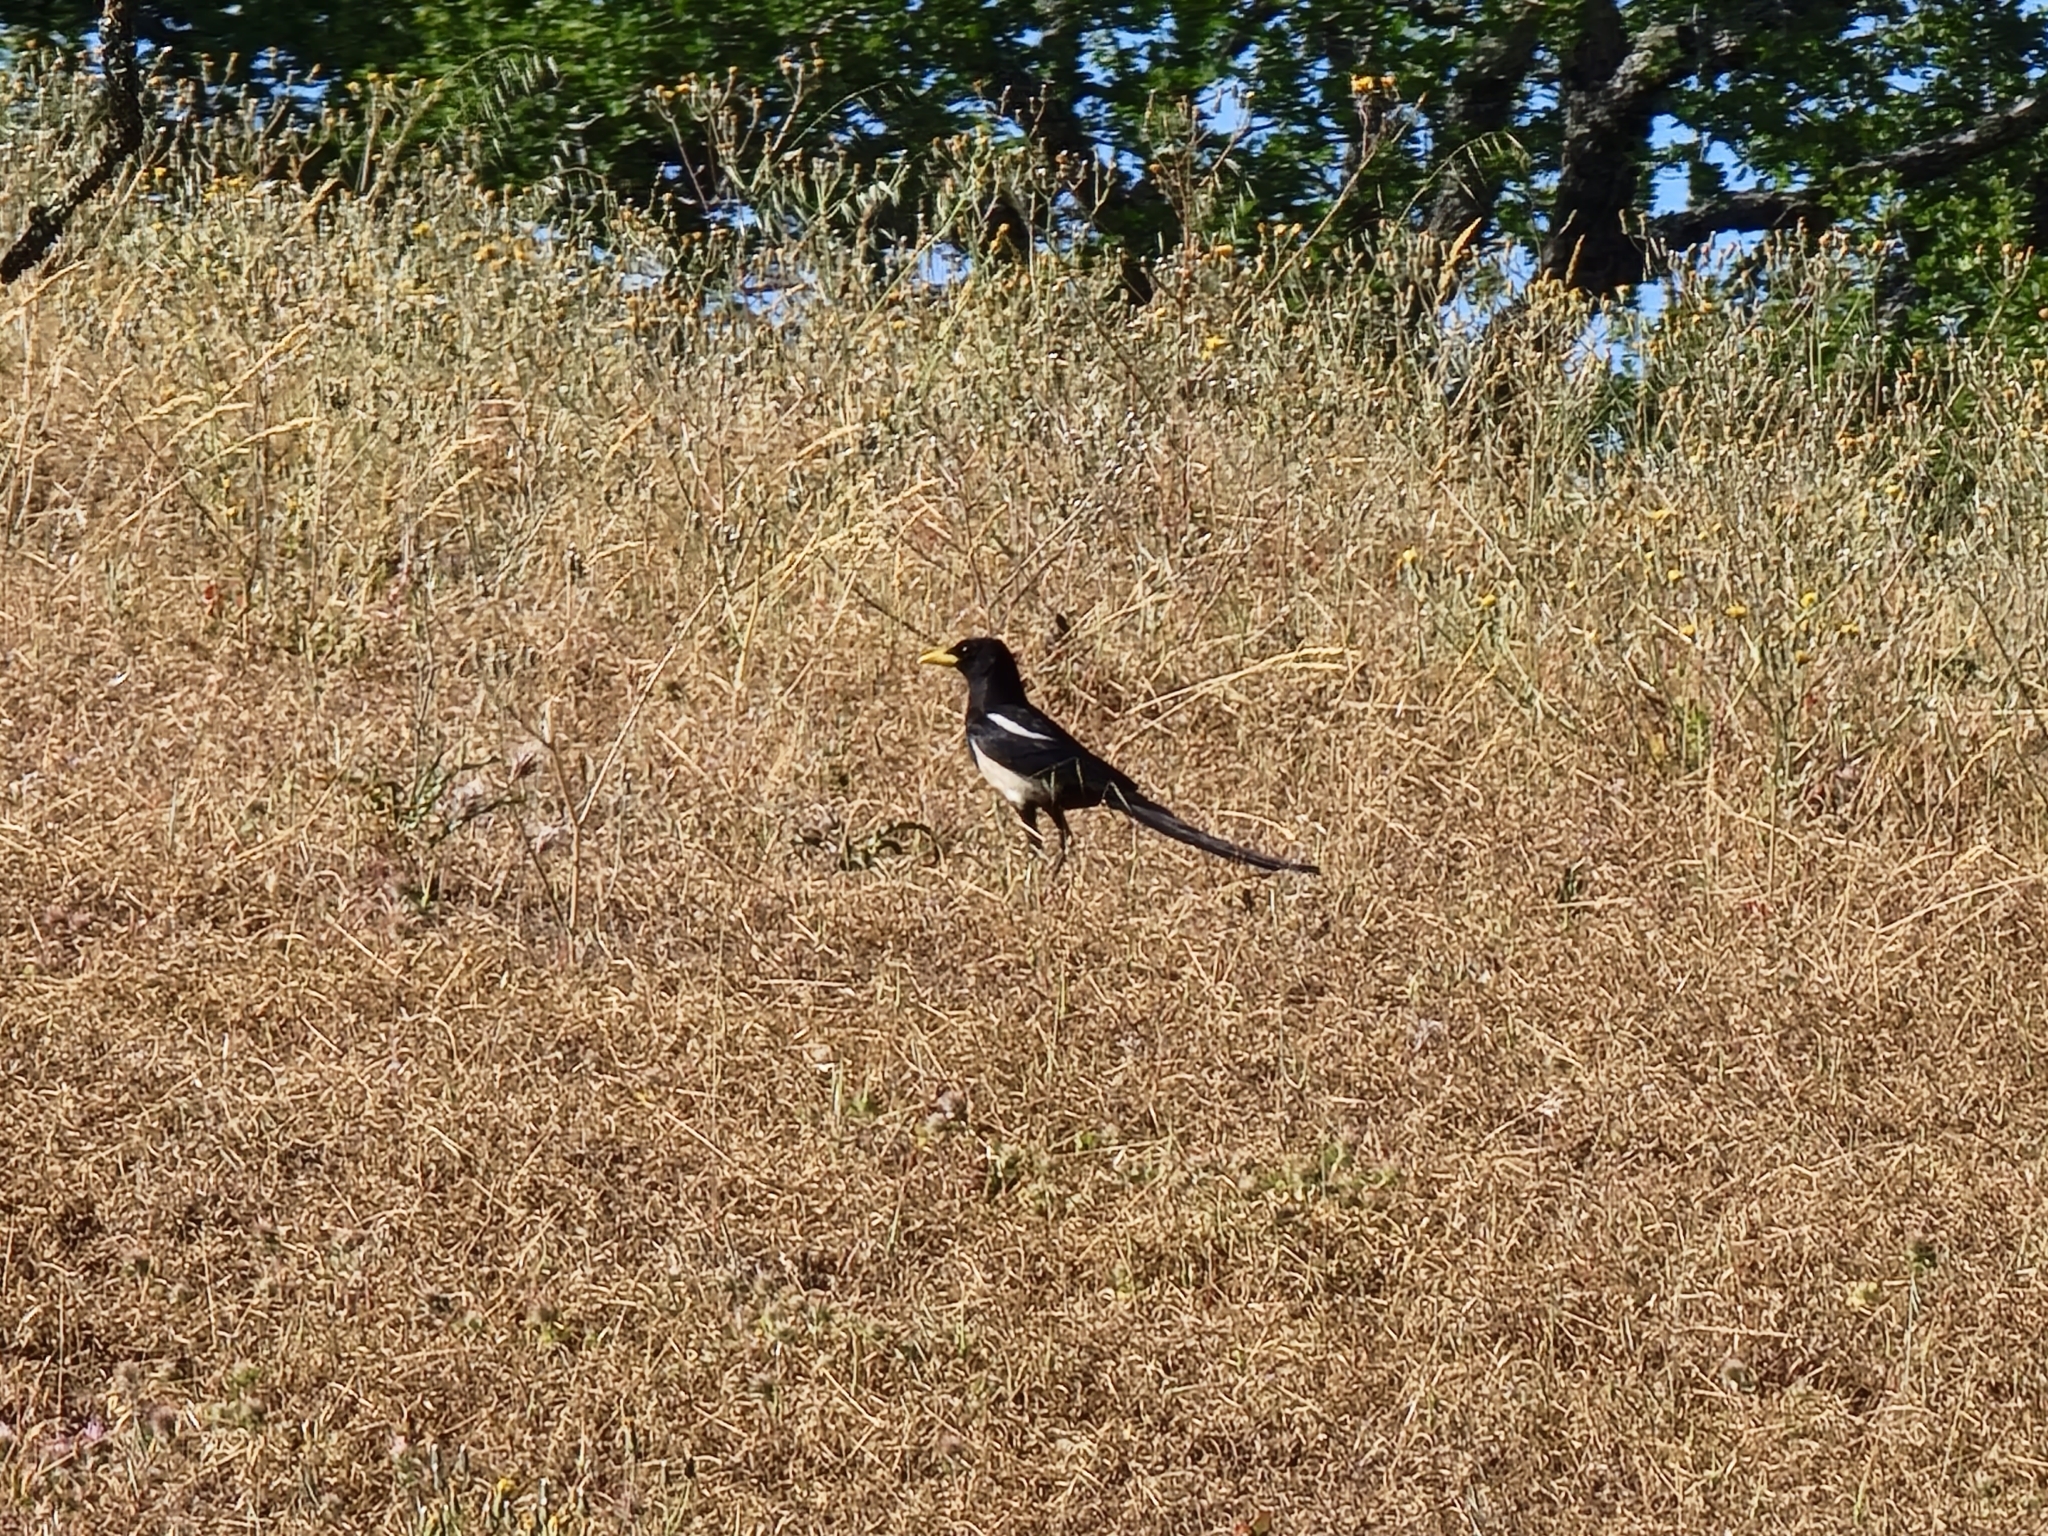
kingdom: Animalia
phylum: Chordata
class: Aves
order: Passeriformes
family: Corvidae
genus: Pica
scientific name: Pica nuttalli
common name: Yellow-billed magpie
